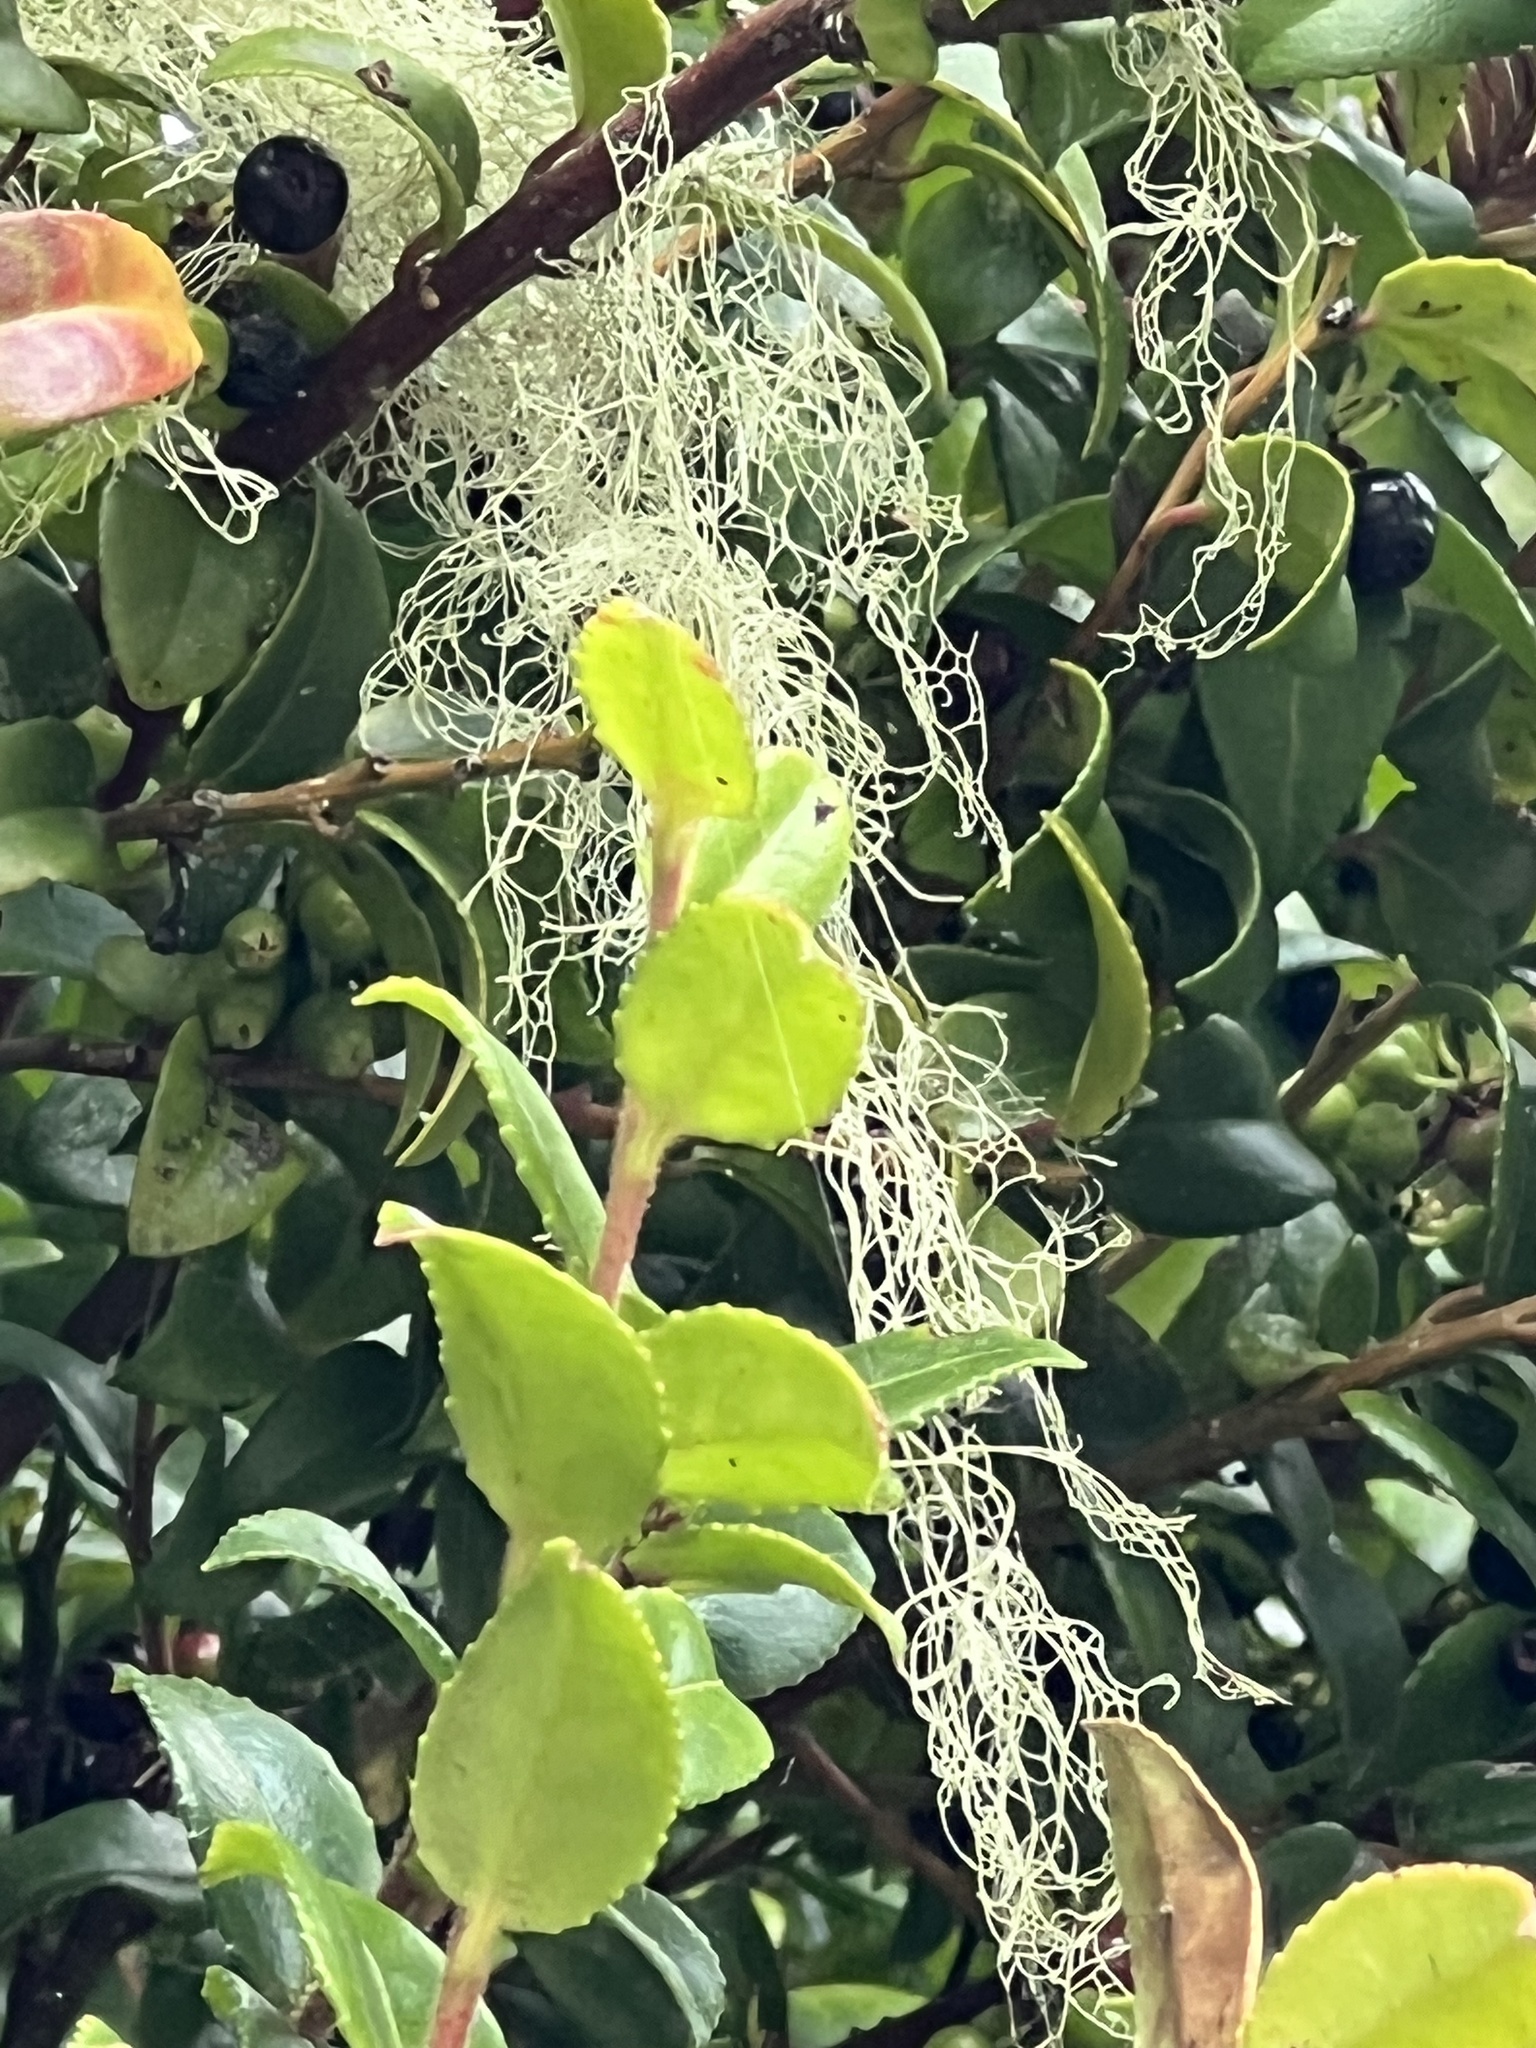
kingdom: Fungi
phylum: Ascomycota
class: Lecanoromycetes
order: Lecanorales
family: Ramalinaceae
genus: Ramalina
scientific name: Ramalina menziesii
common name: Lace lichen
